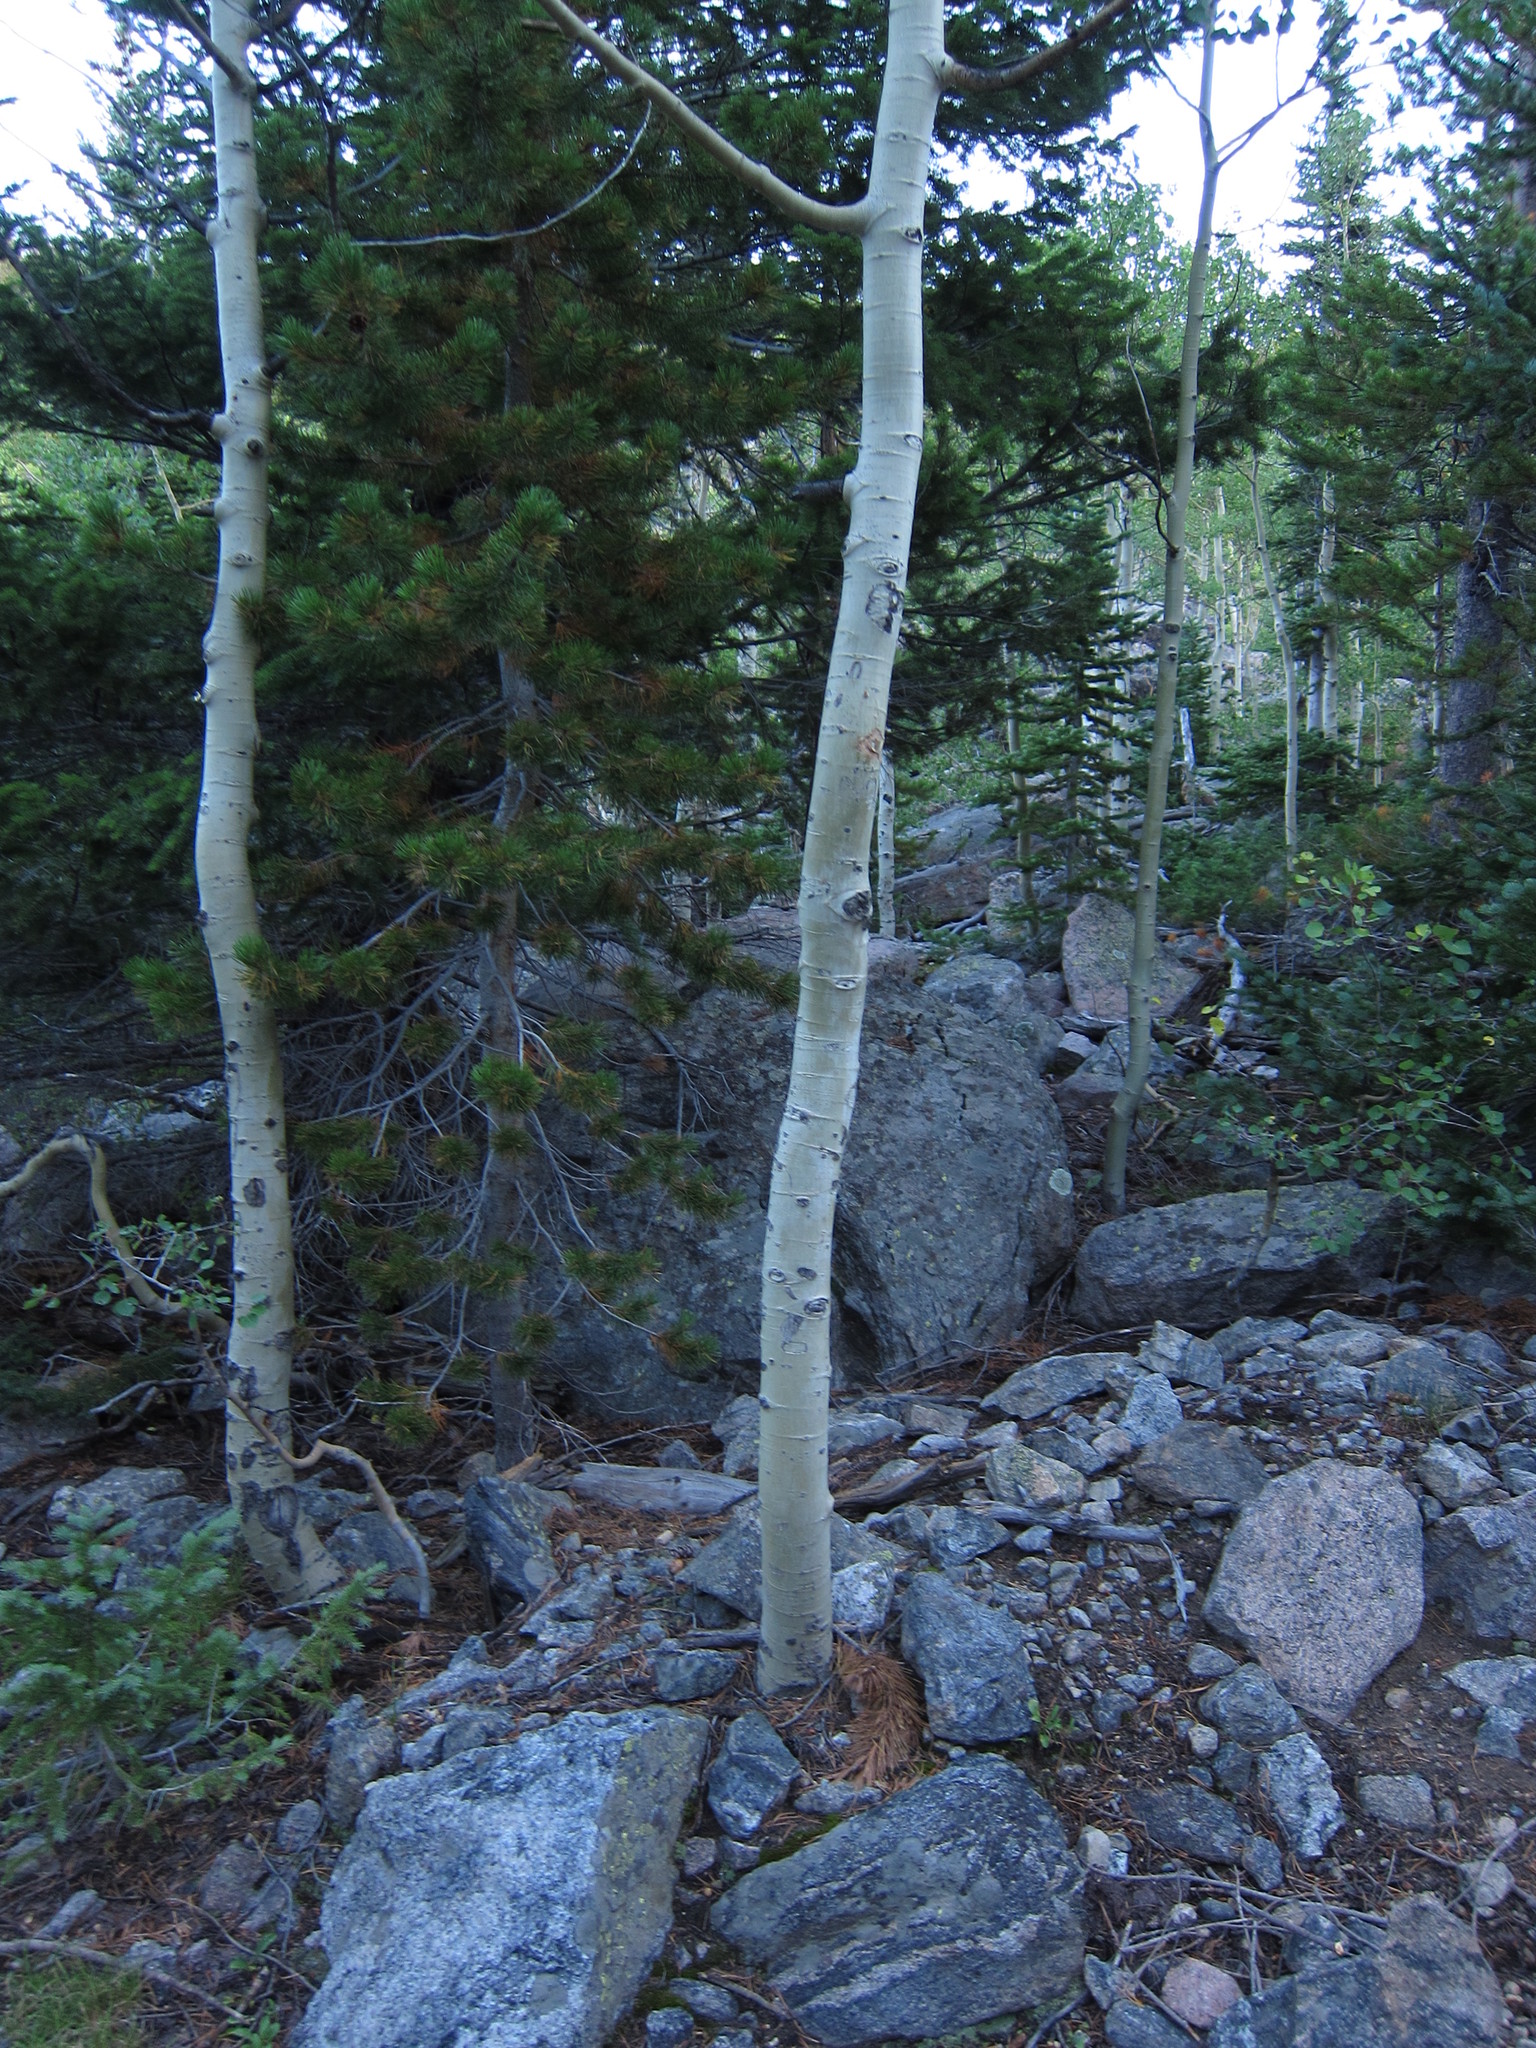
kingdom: Plantae
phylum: Tracheophyta
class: Magnoliopsida
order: Malpighiales
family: Salicaceae
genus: Populus
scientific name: Populus tremuloides
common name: Quaking aspen
